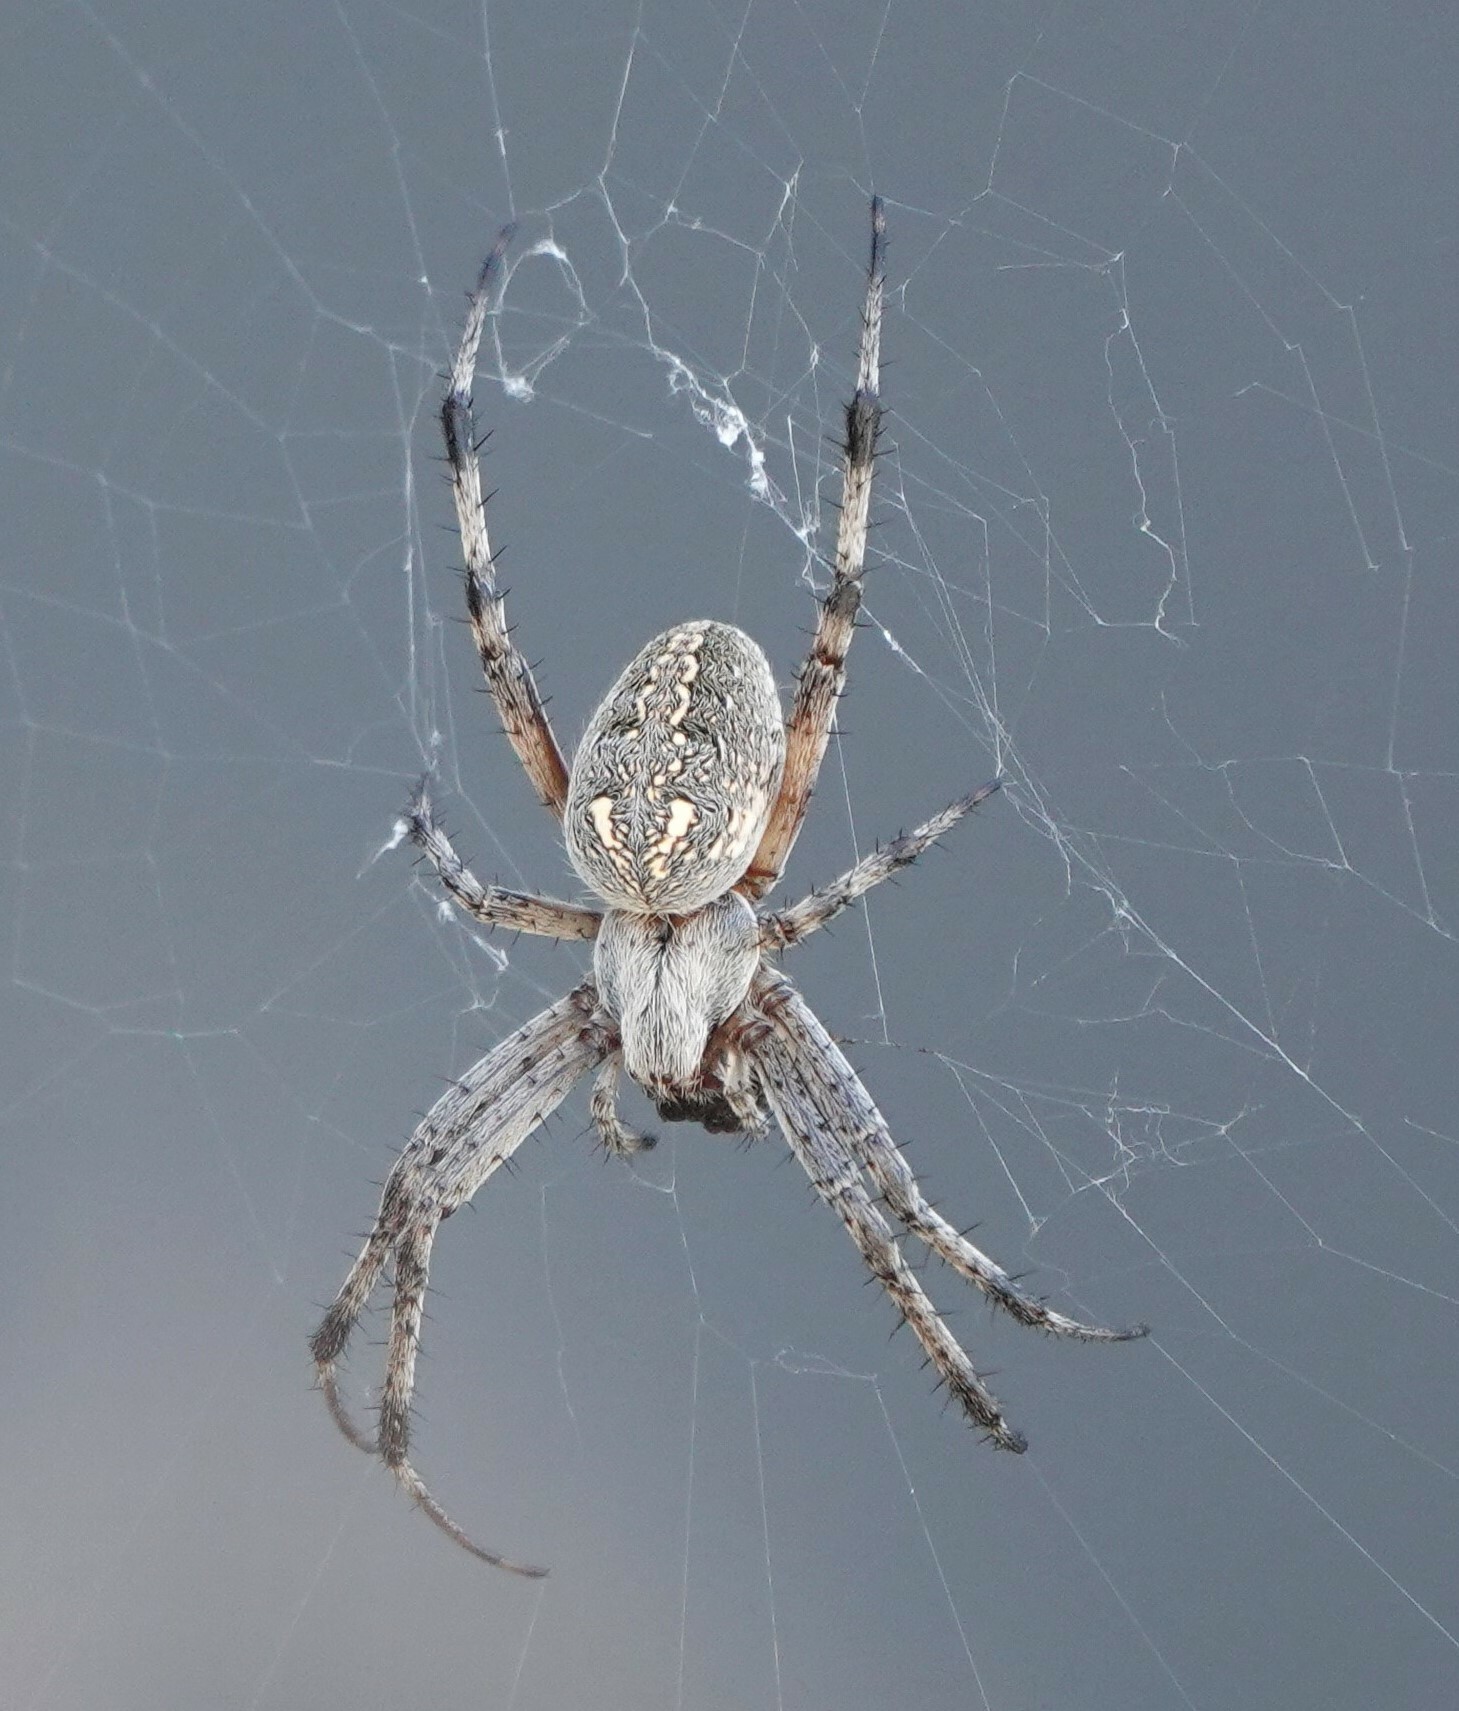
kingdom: Animalia
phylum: Arthropoda
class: Arachnida
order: Araneae
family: Araneidae
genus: Neoscona
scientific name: Neoscona oaxacensis
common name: Orb weavers
